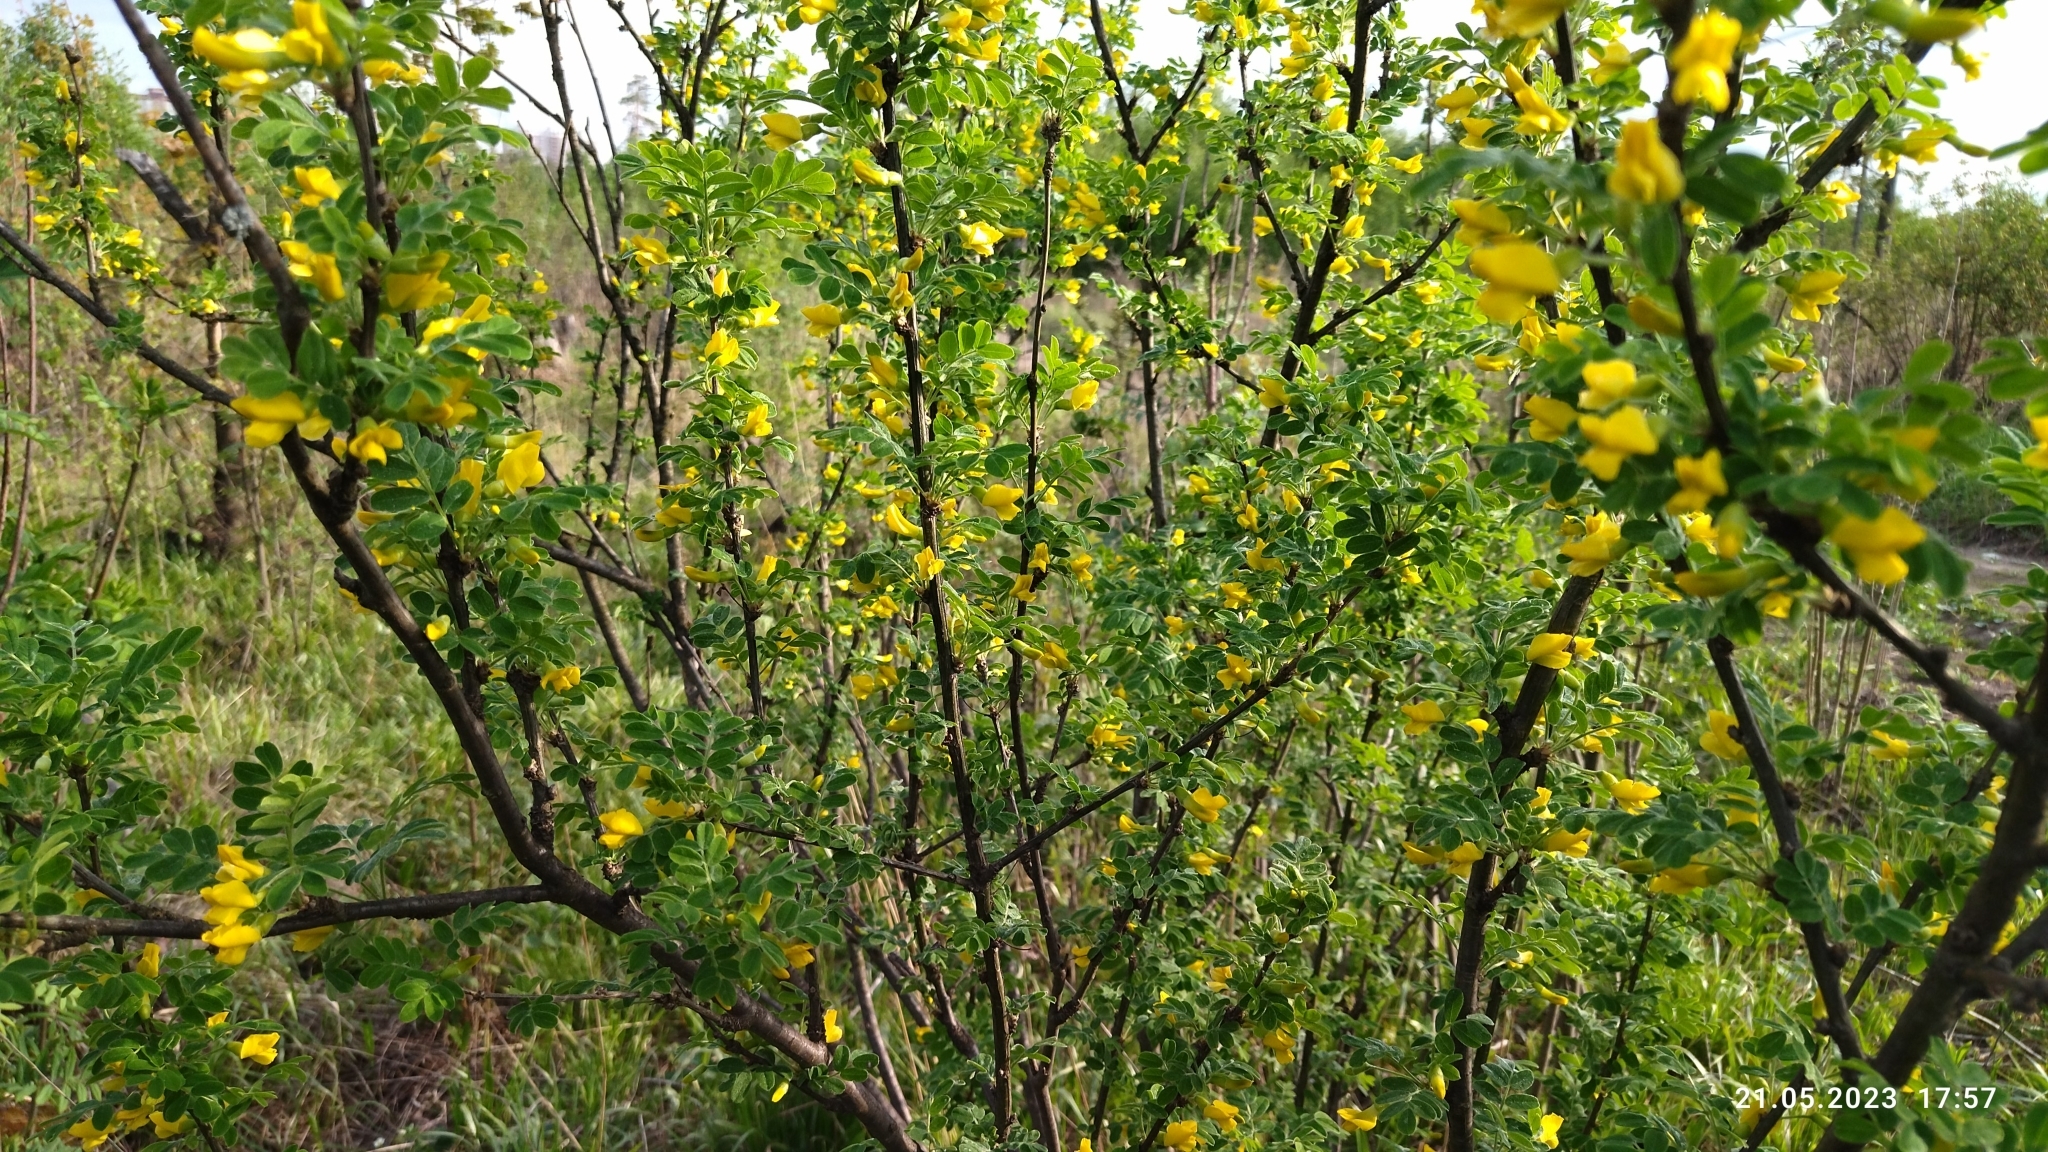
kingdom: Plantae
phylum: Tracheophyta
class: Magnoliopsida
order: Fabales
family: Fabaceae
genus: Caragana
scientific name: Caragana arborescens
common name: Siberian peashrub
